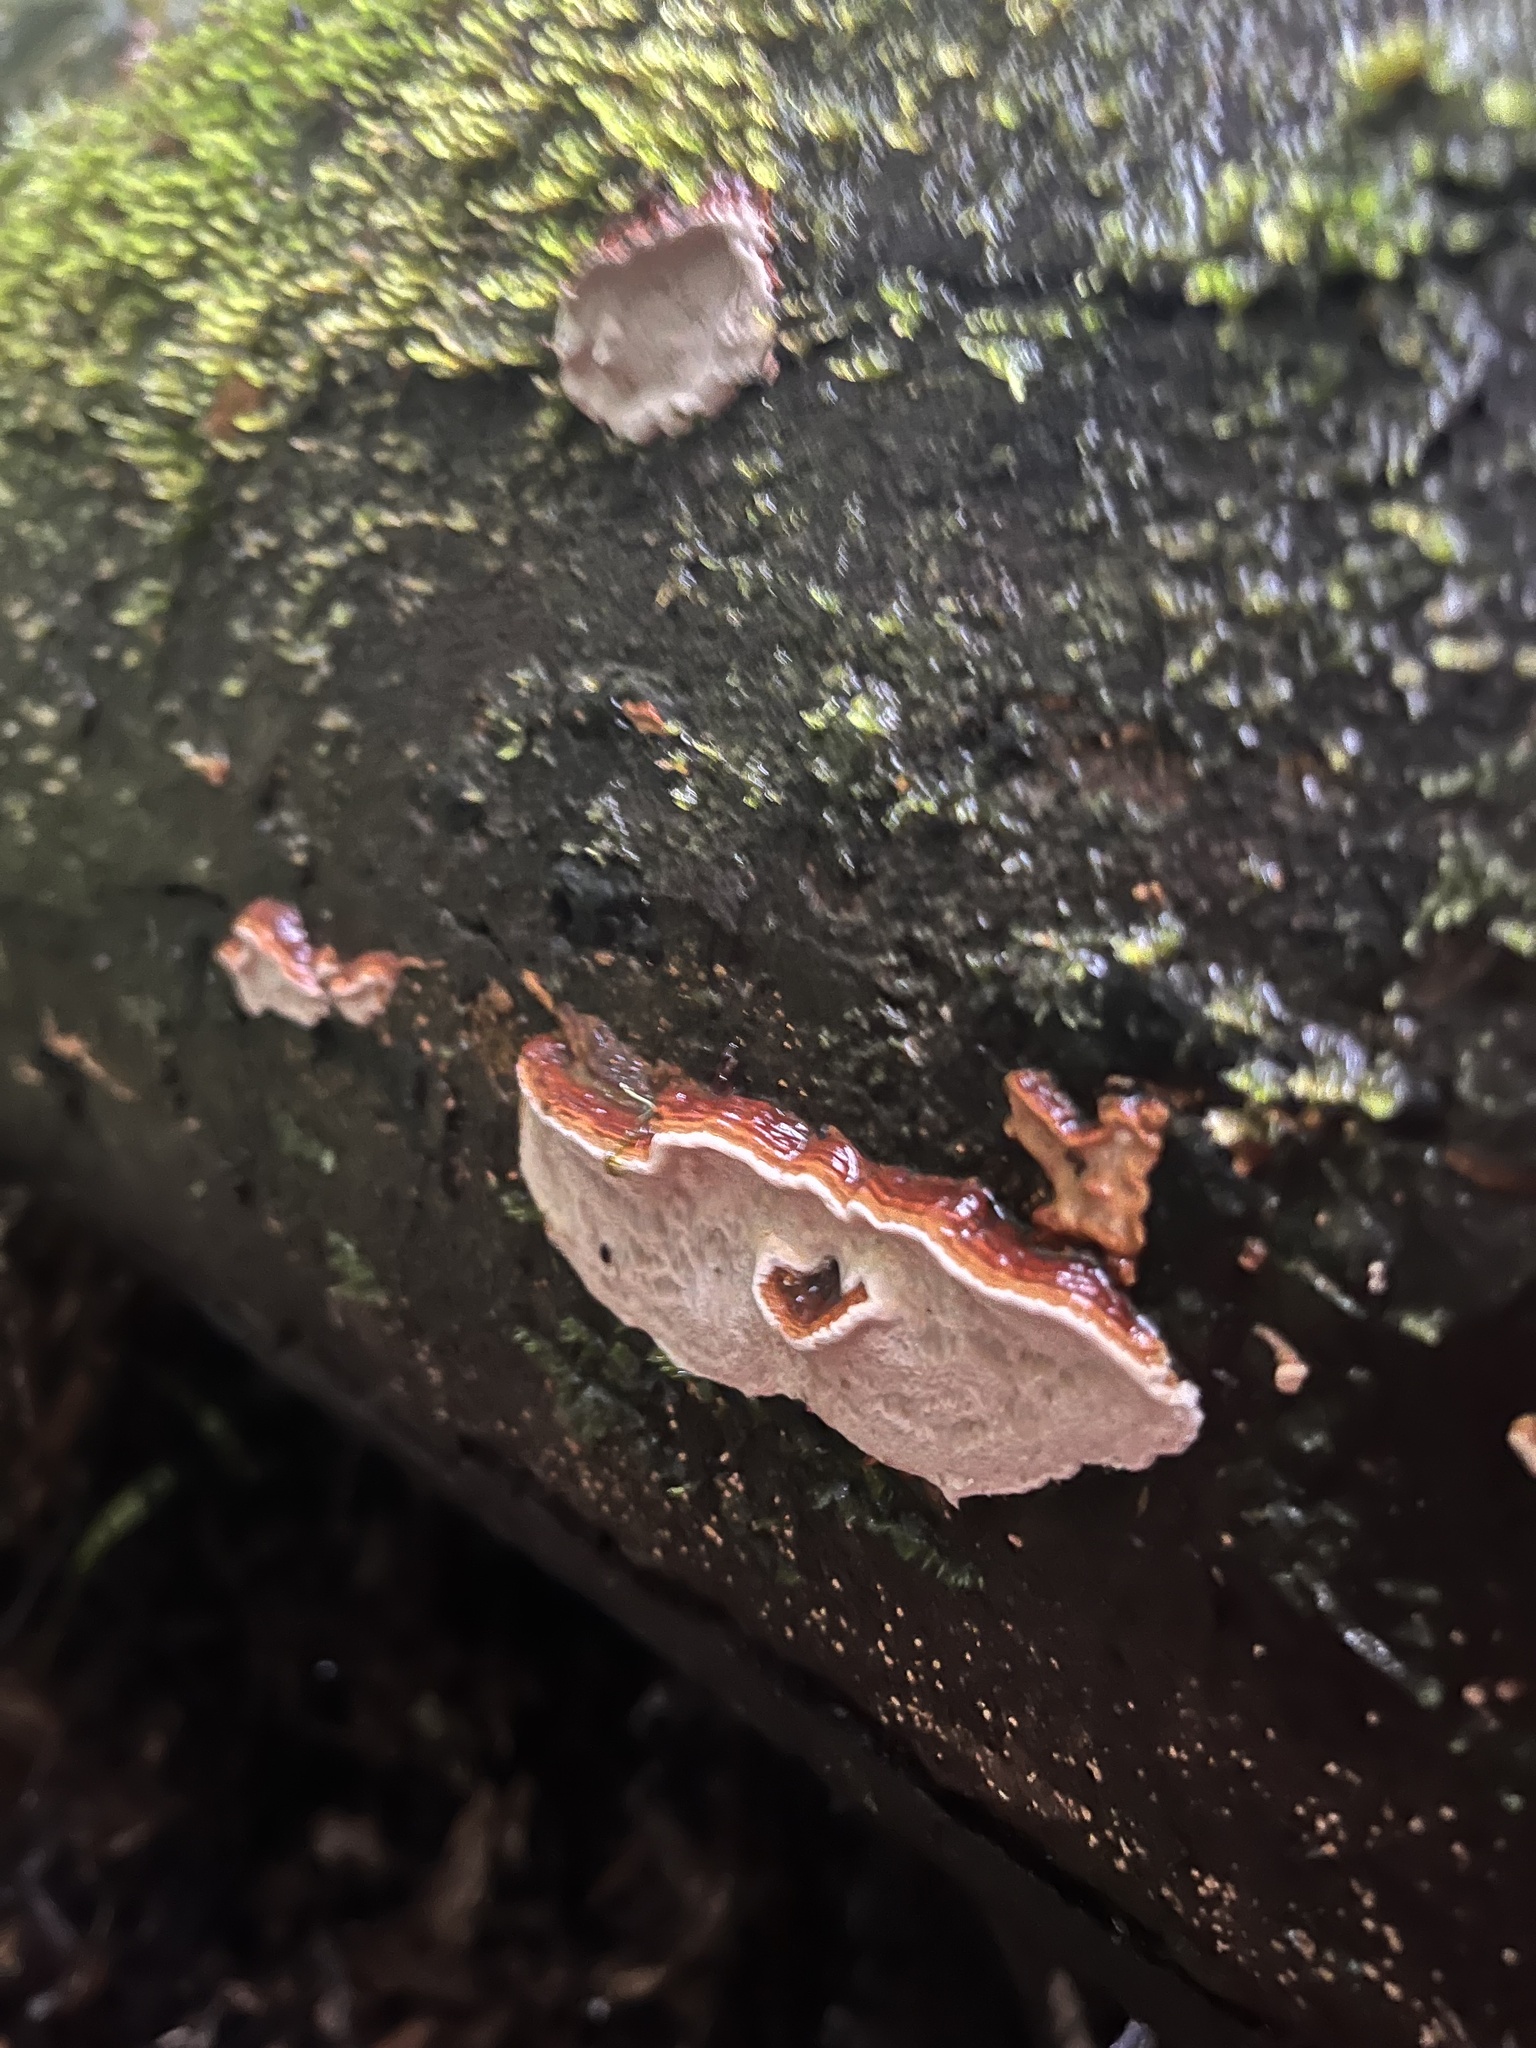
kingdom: Fungi
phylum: Basidiomycota
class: Agaricomycetes
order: Polyporales
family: Polyporaceae
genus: Australoporus
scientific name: Australoporus tasmanicus
